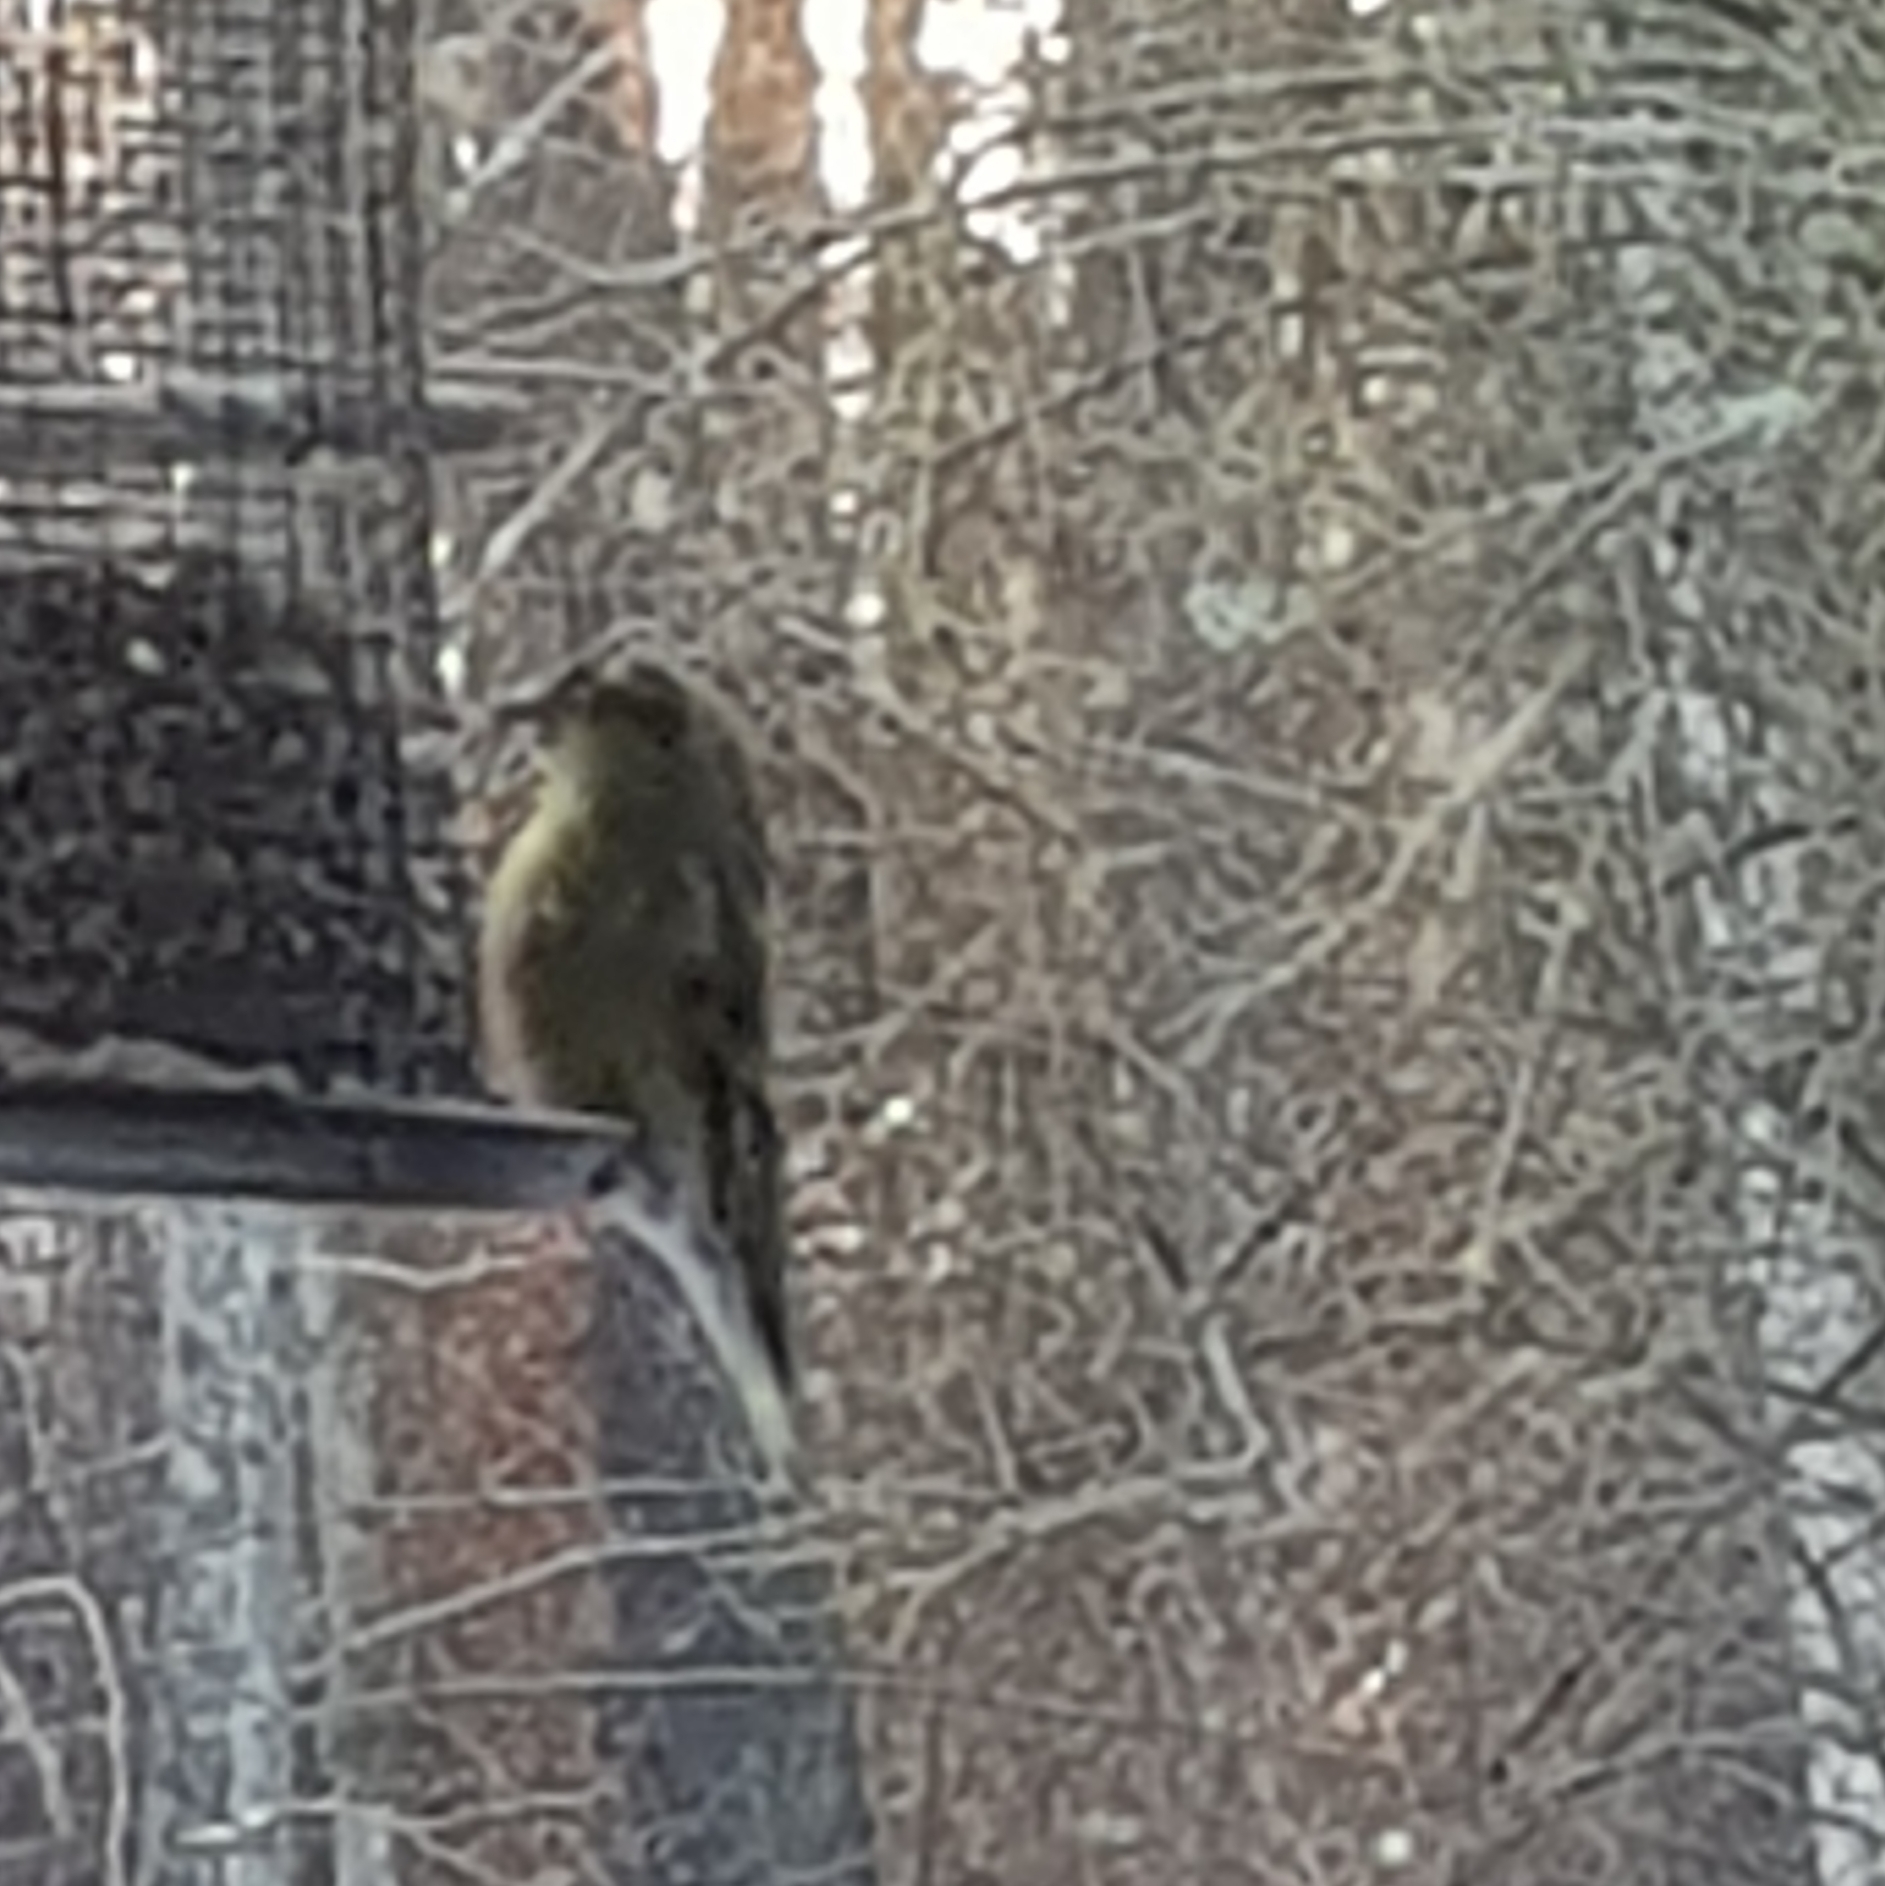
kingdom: Animalia
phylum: Chordata
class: Aves
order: Passeriformes
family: Fringillidae
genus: Spinus
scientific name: Spinus spinus
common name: Eurasian siskin
